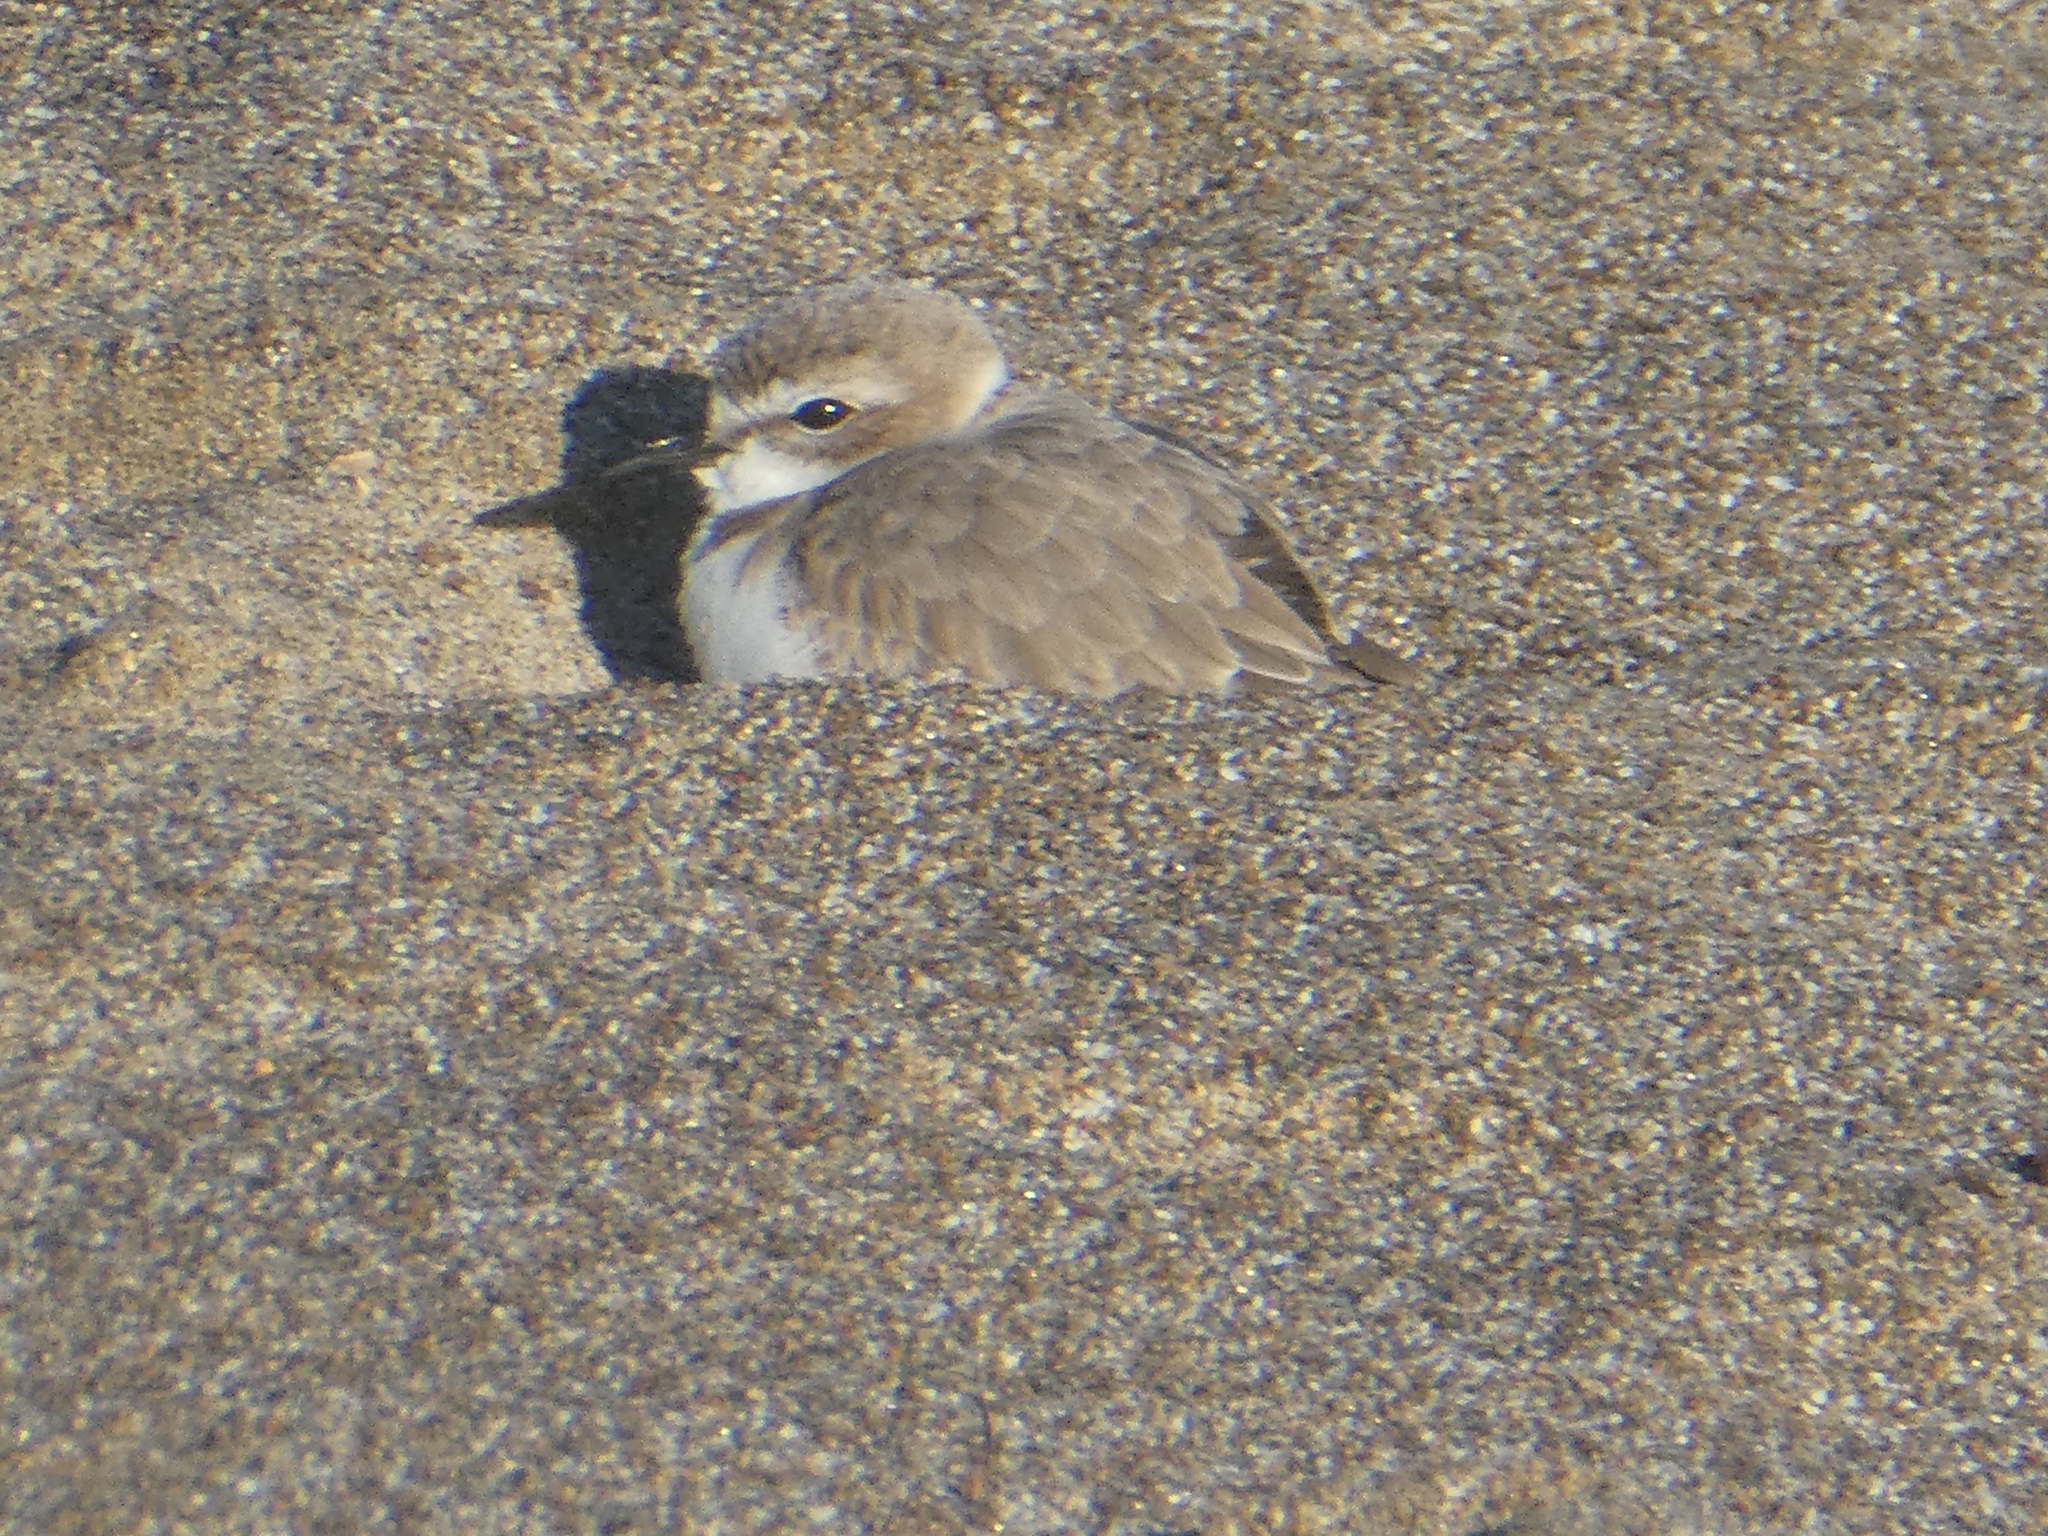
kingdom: Animalia
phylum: Chordata
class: Aves
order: Charadriiformes
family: Charadriidae
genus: Anarhynchus
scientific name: Anarhynchus
